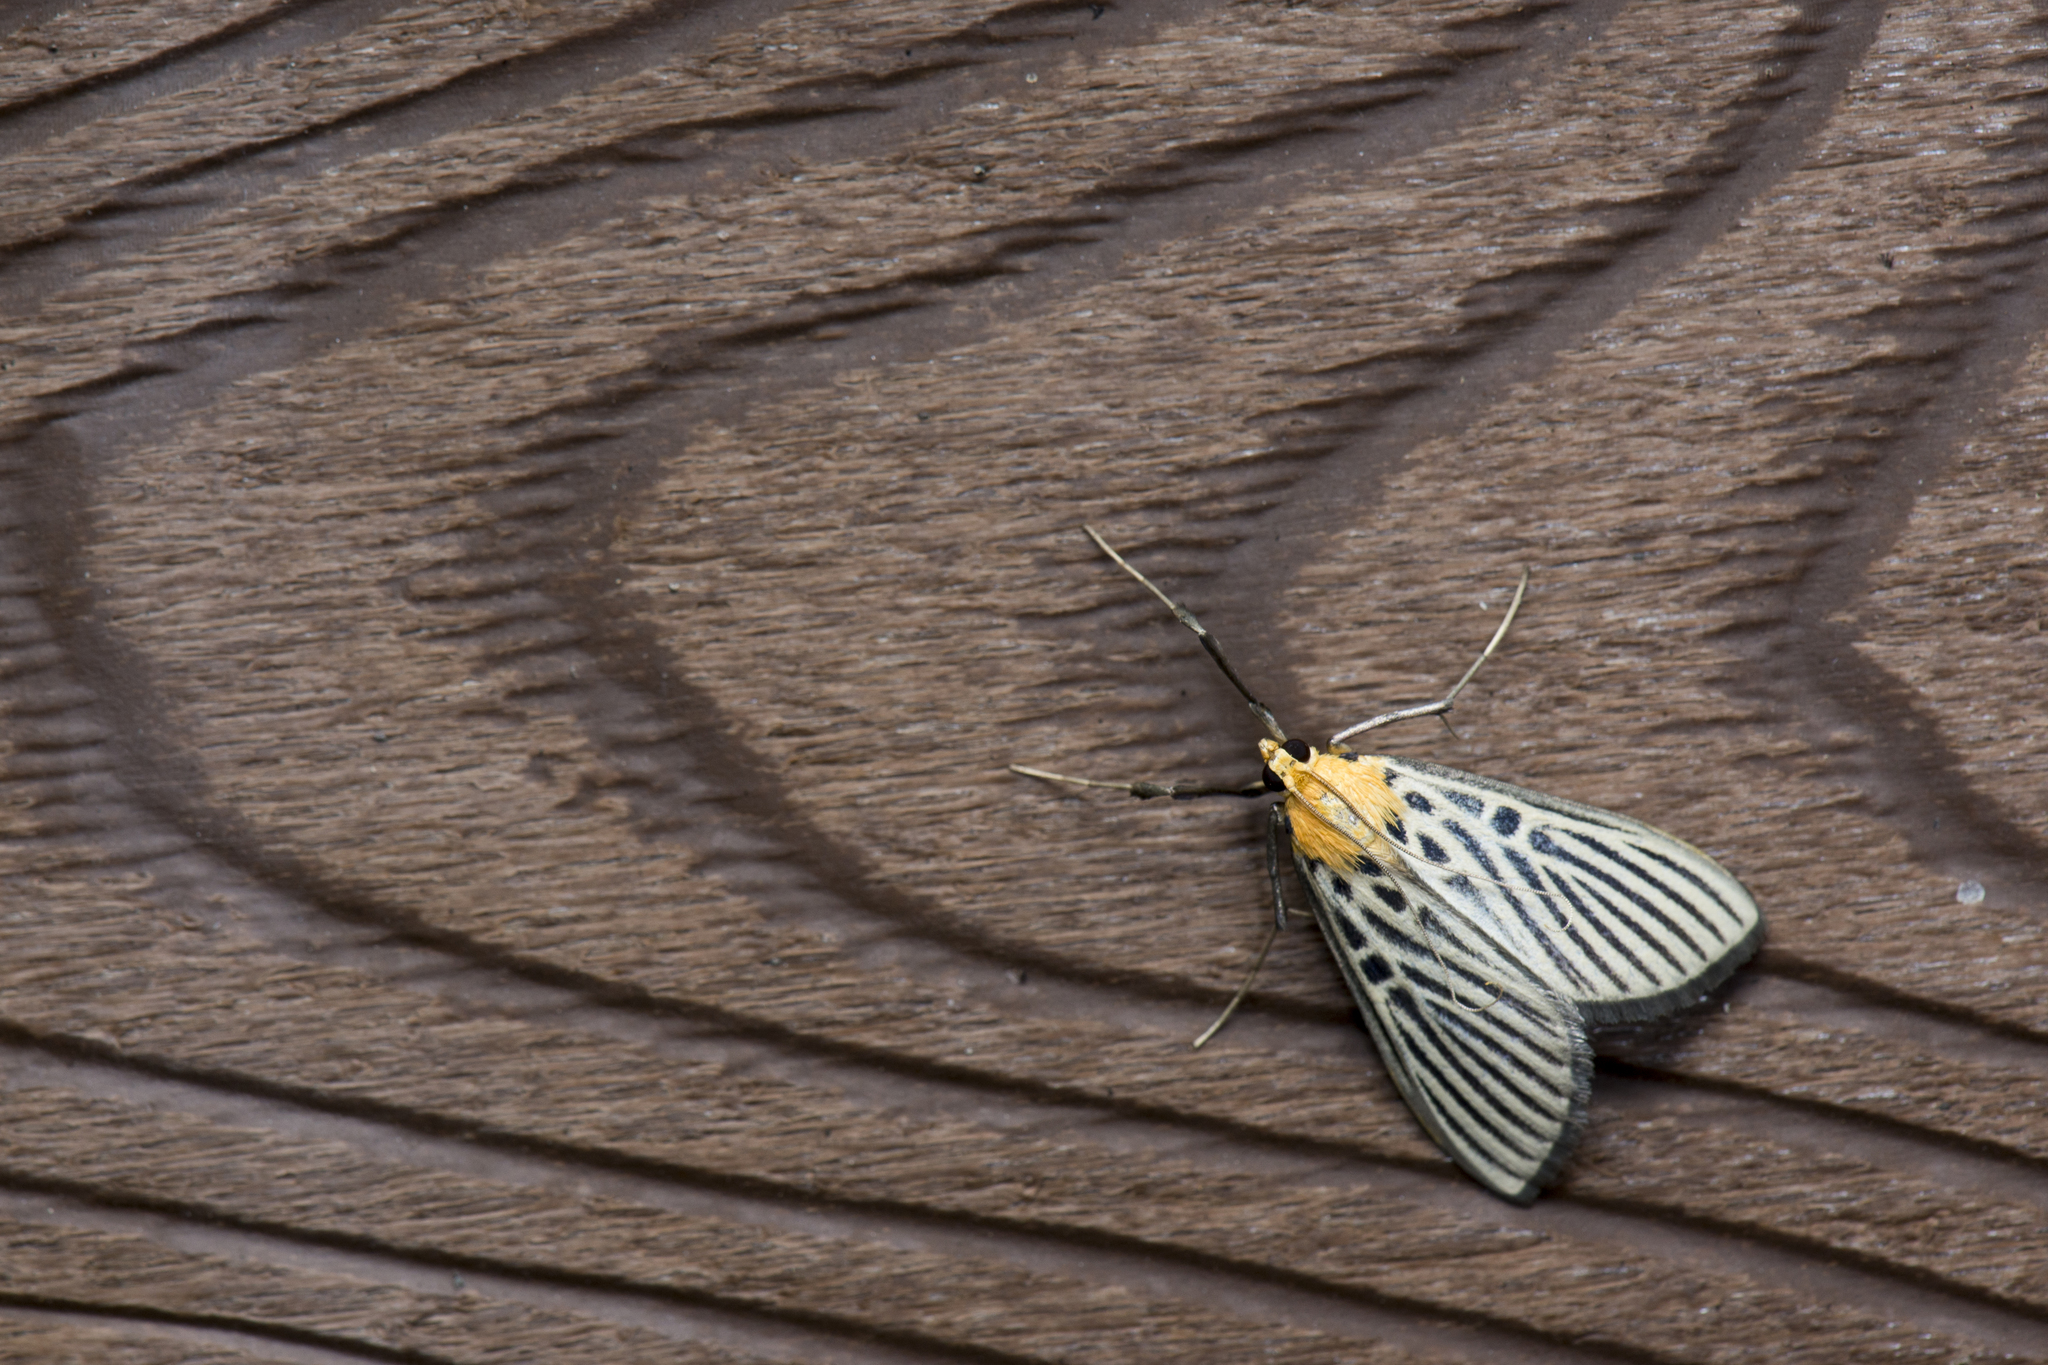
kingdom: Animalia
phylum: Arthropoda
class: Insecta
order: Lepidoptera
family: Crambidae
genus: Tyspanodes
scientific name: Tyspanodes hypsalis
